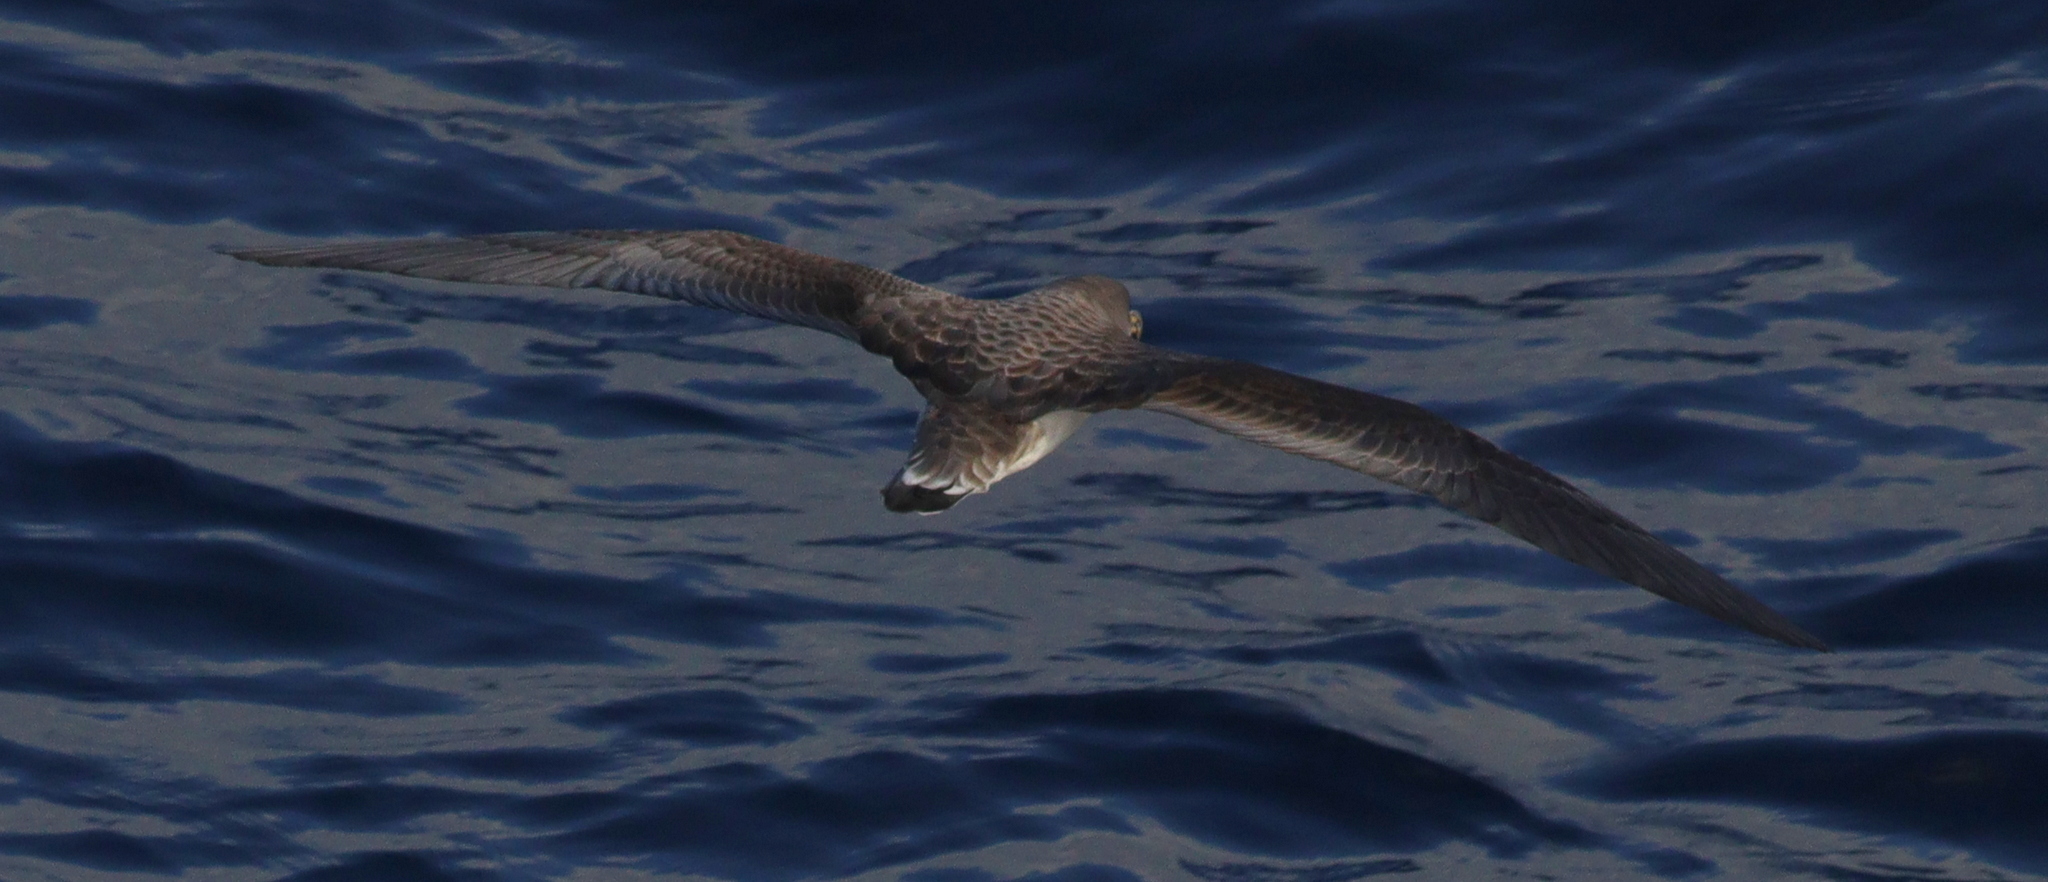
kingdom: Animalia
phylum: Chordata
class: Aves
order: Procellariiformes
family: Procellariidae
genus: Calonectris
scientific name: Calonectris diomedea
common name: Cory's shearwater
